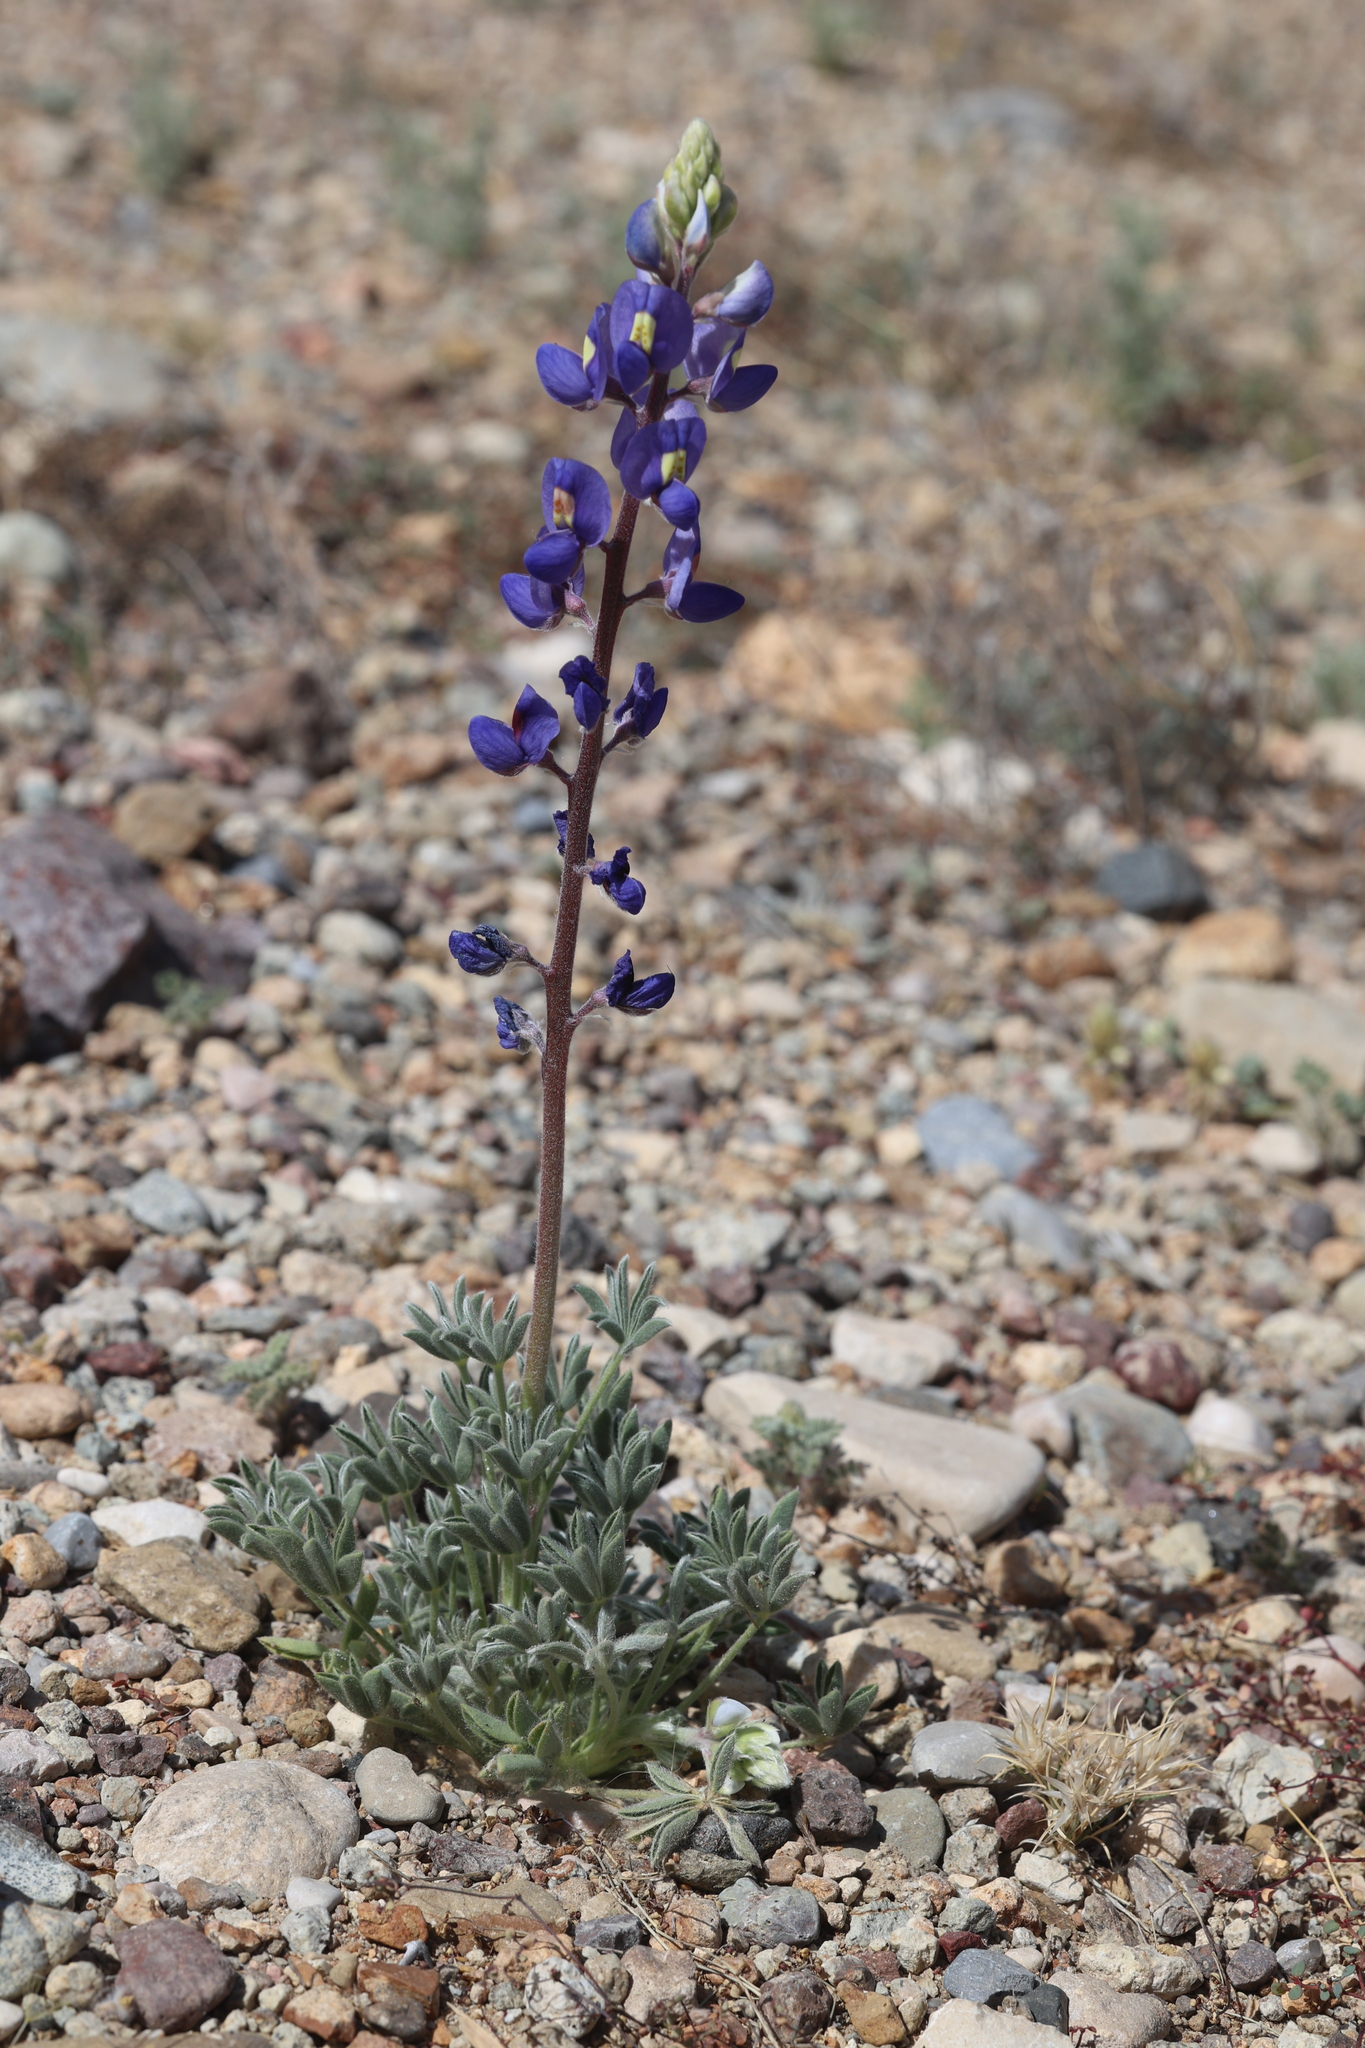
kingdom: Plantae
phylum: Tracheophyta
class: Magnoliopsida
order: Fabales
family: Fabaceae
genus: Lupinus
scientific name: Lupinus havardii
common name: Chisos bluebonnet
